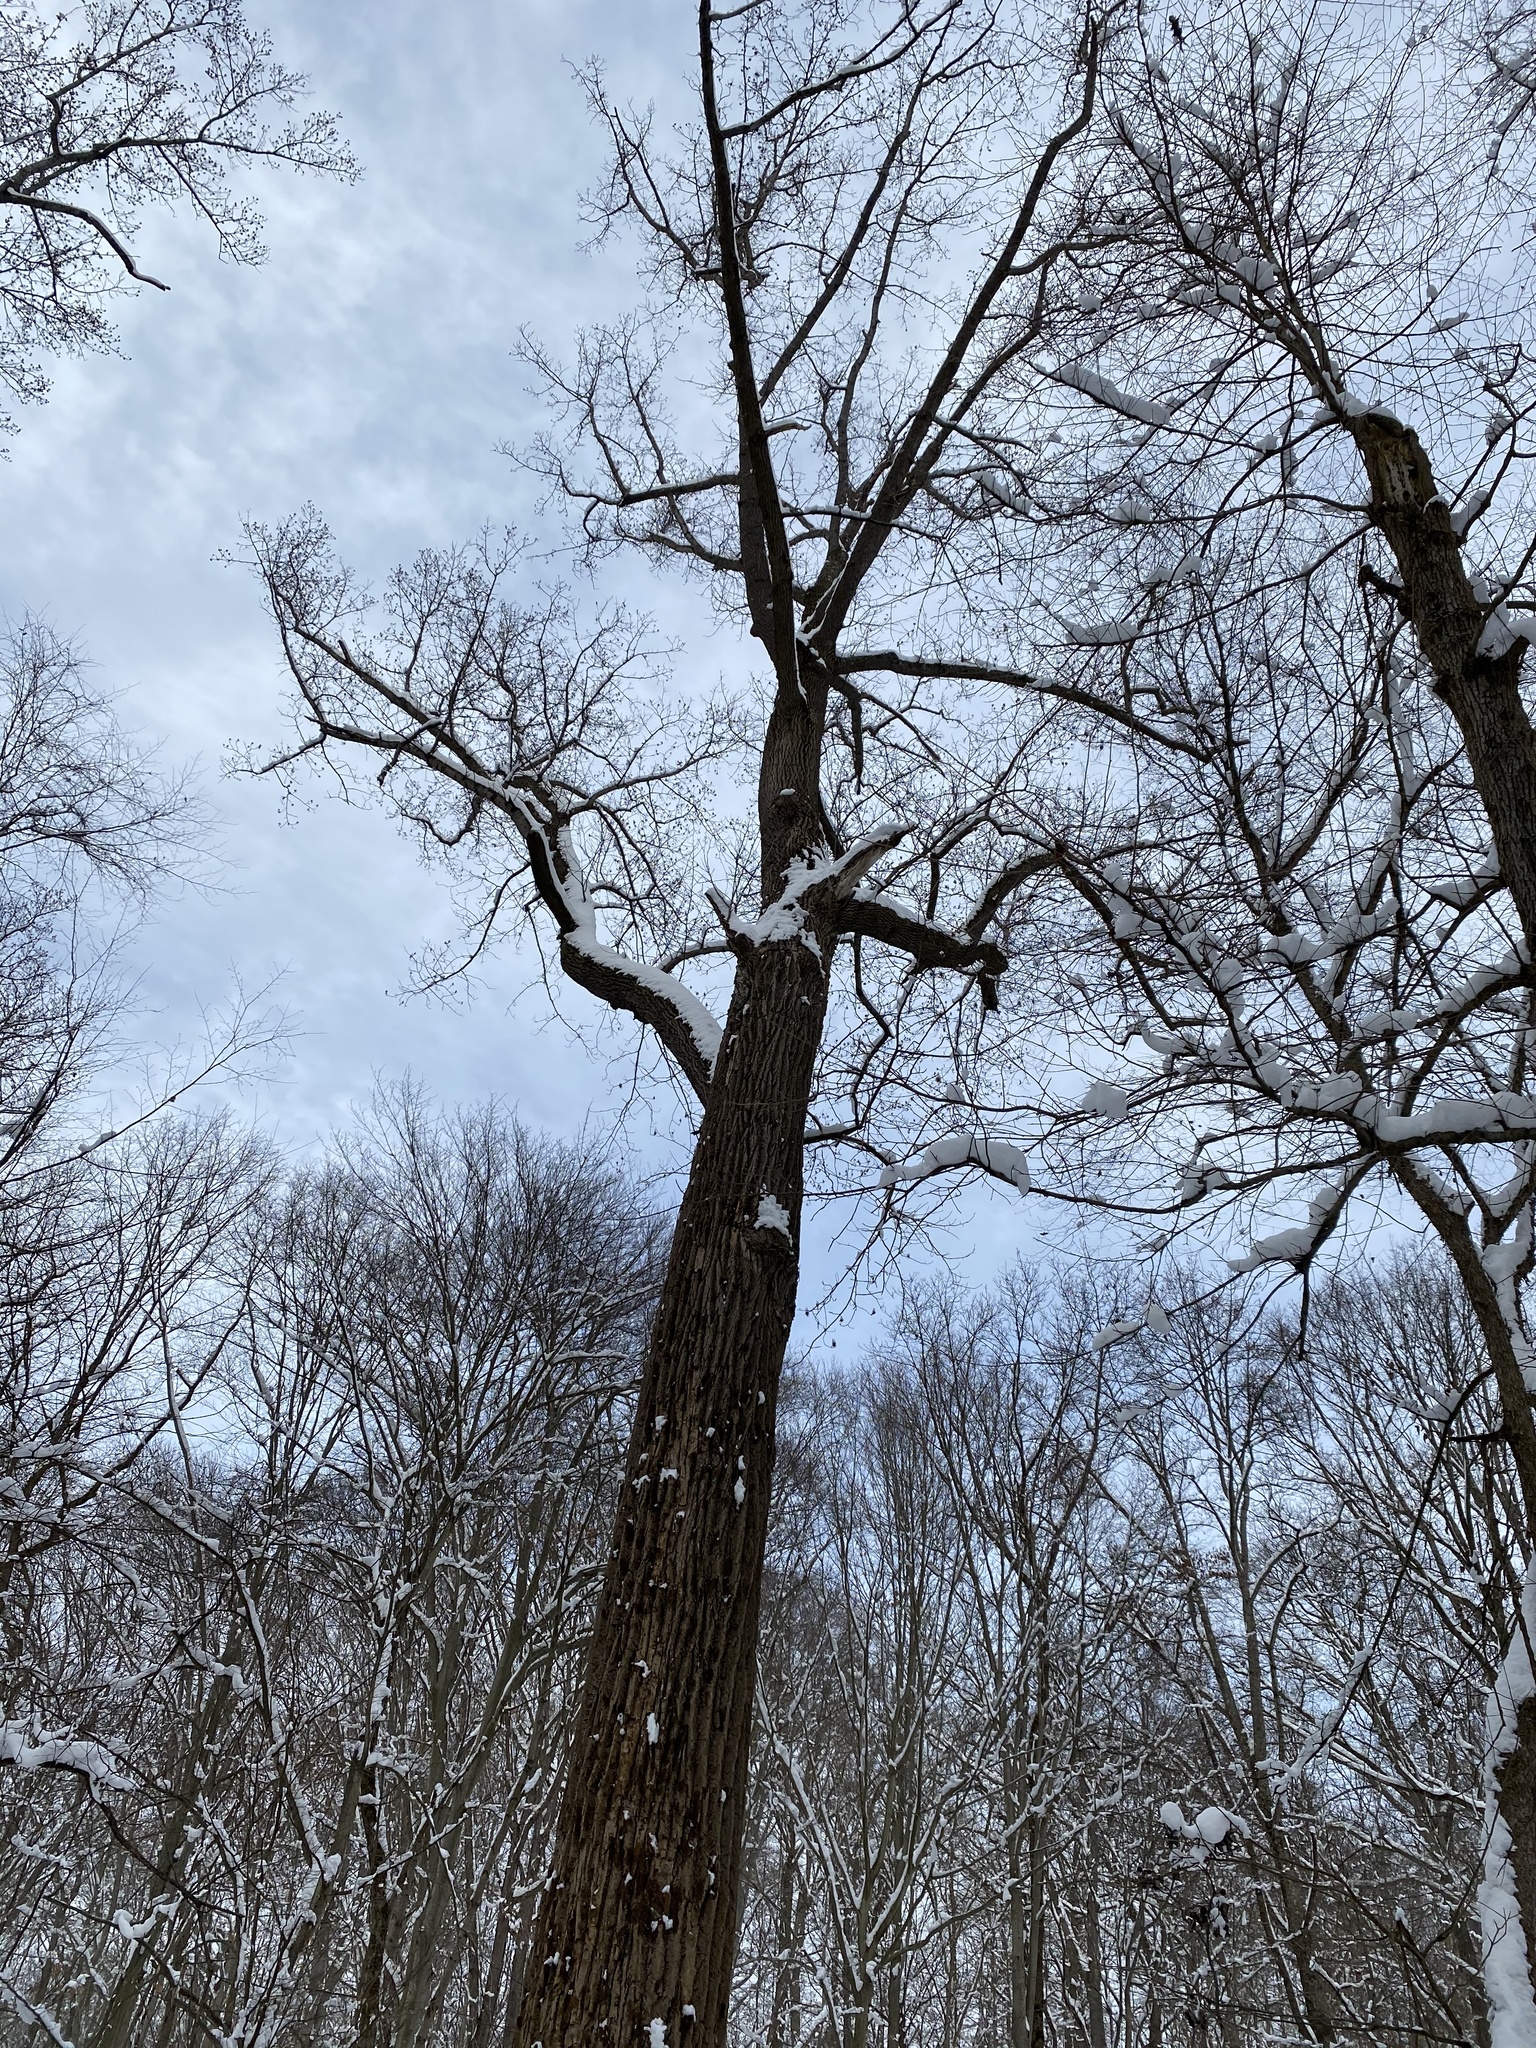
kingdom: Plantae
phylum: Tracheophyta
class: Magnoliopsida
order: Magnoliales
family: Magnoliaceae
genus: Liriodendron
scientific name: Liriodendron tulipifera
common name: Tulip tree
